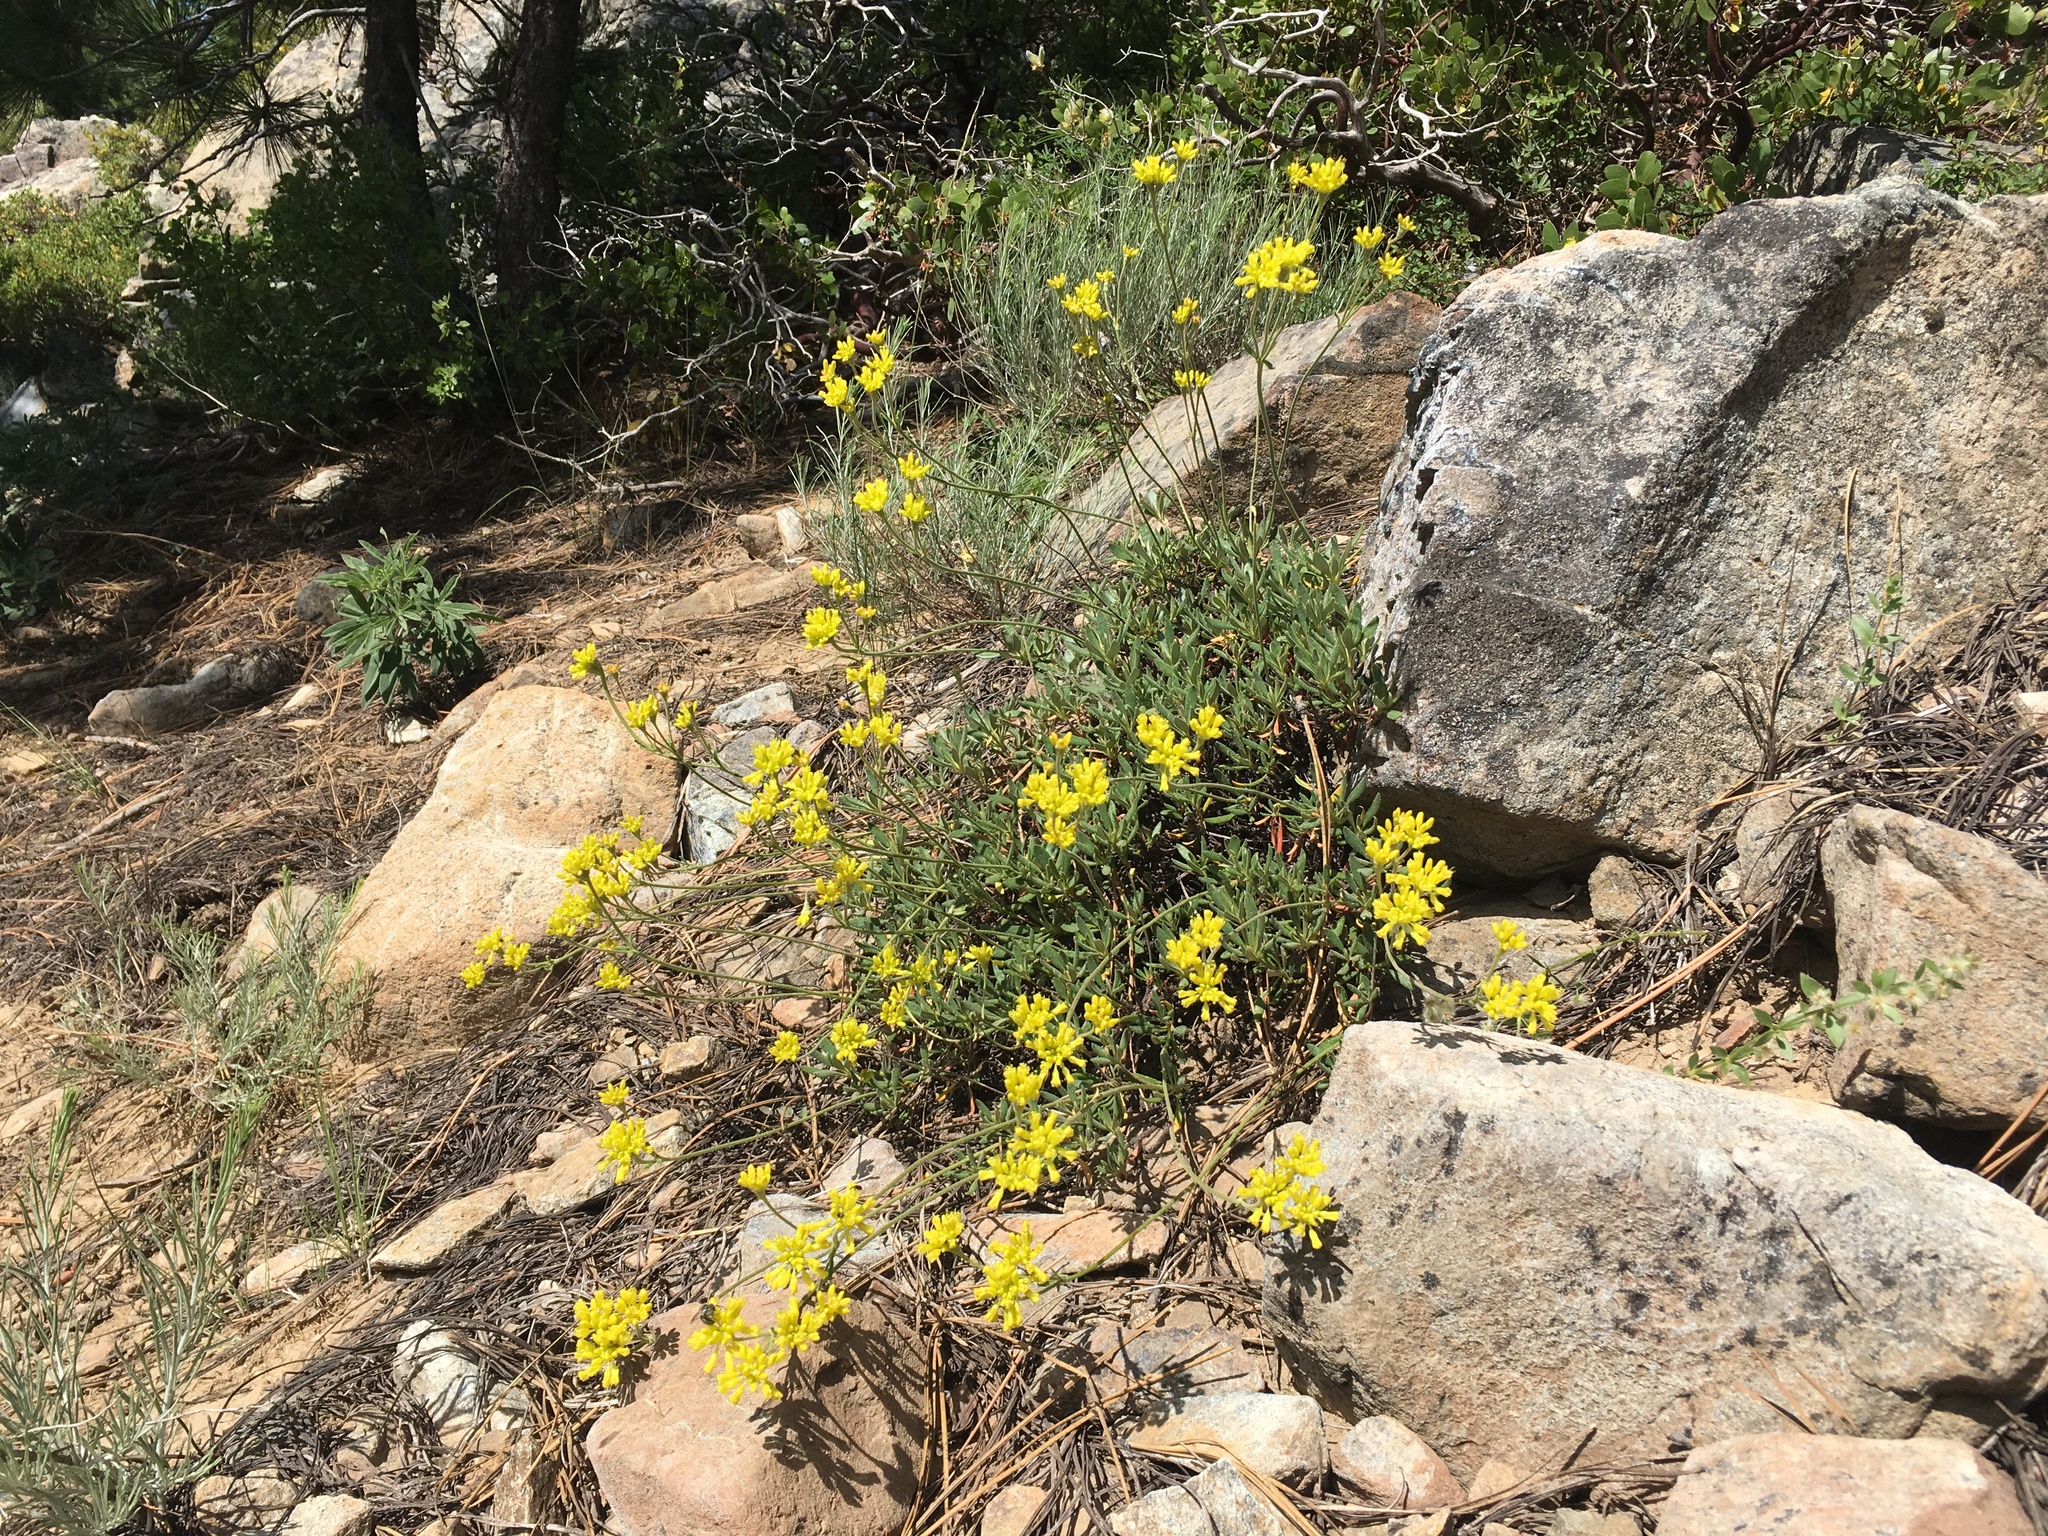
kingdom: Plantae
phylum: Tracheophyta
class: Magnoliopsida
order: Caryophyllales
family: Polygonaceae
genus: Eriogonum
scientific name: Eriogonum congdonii
